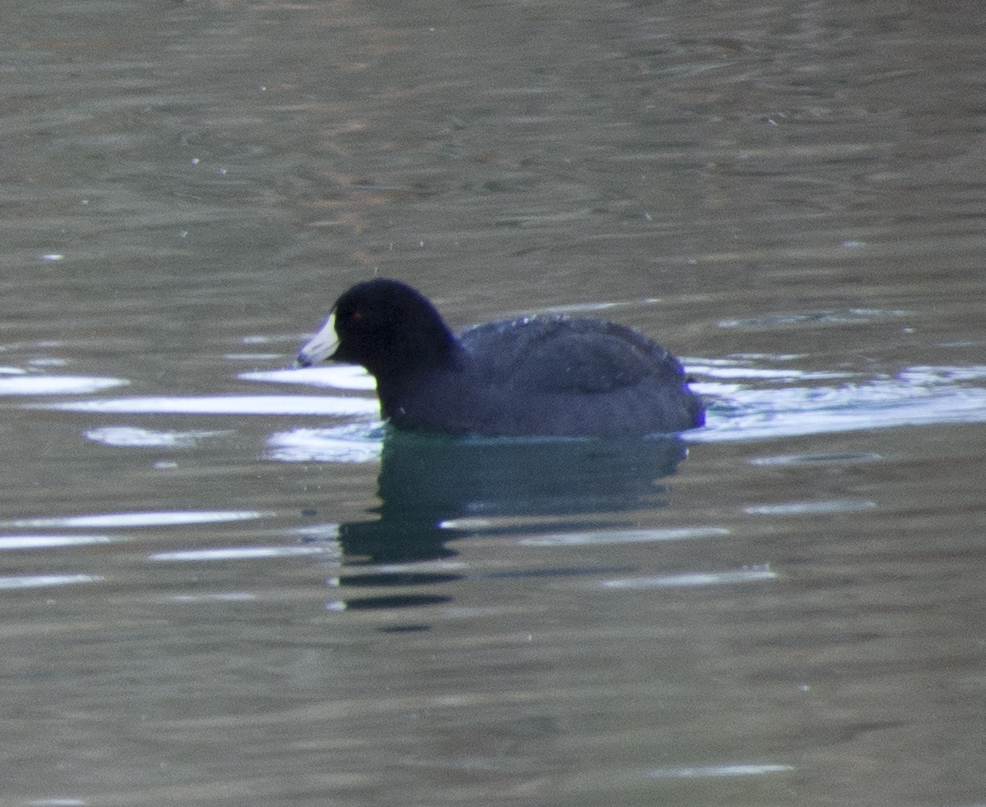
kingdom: Animalia
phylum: Chordata
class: Aves
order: Gruiformes
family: Rallidae
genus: Fulica
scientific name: Fulica americana
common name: American coot
